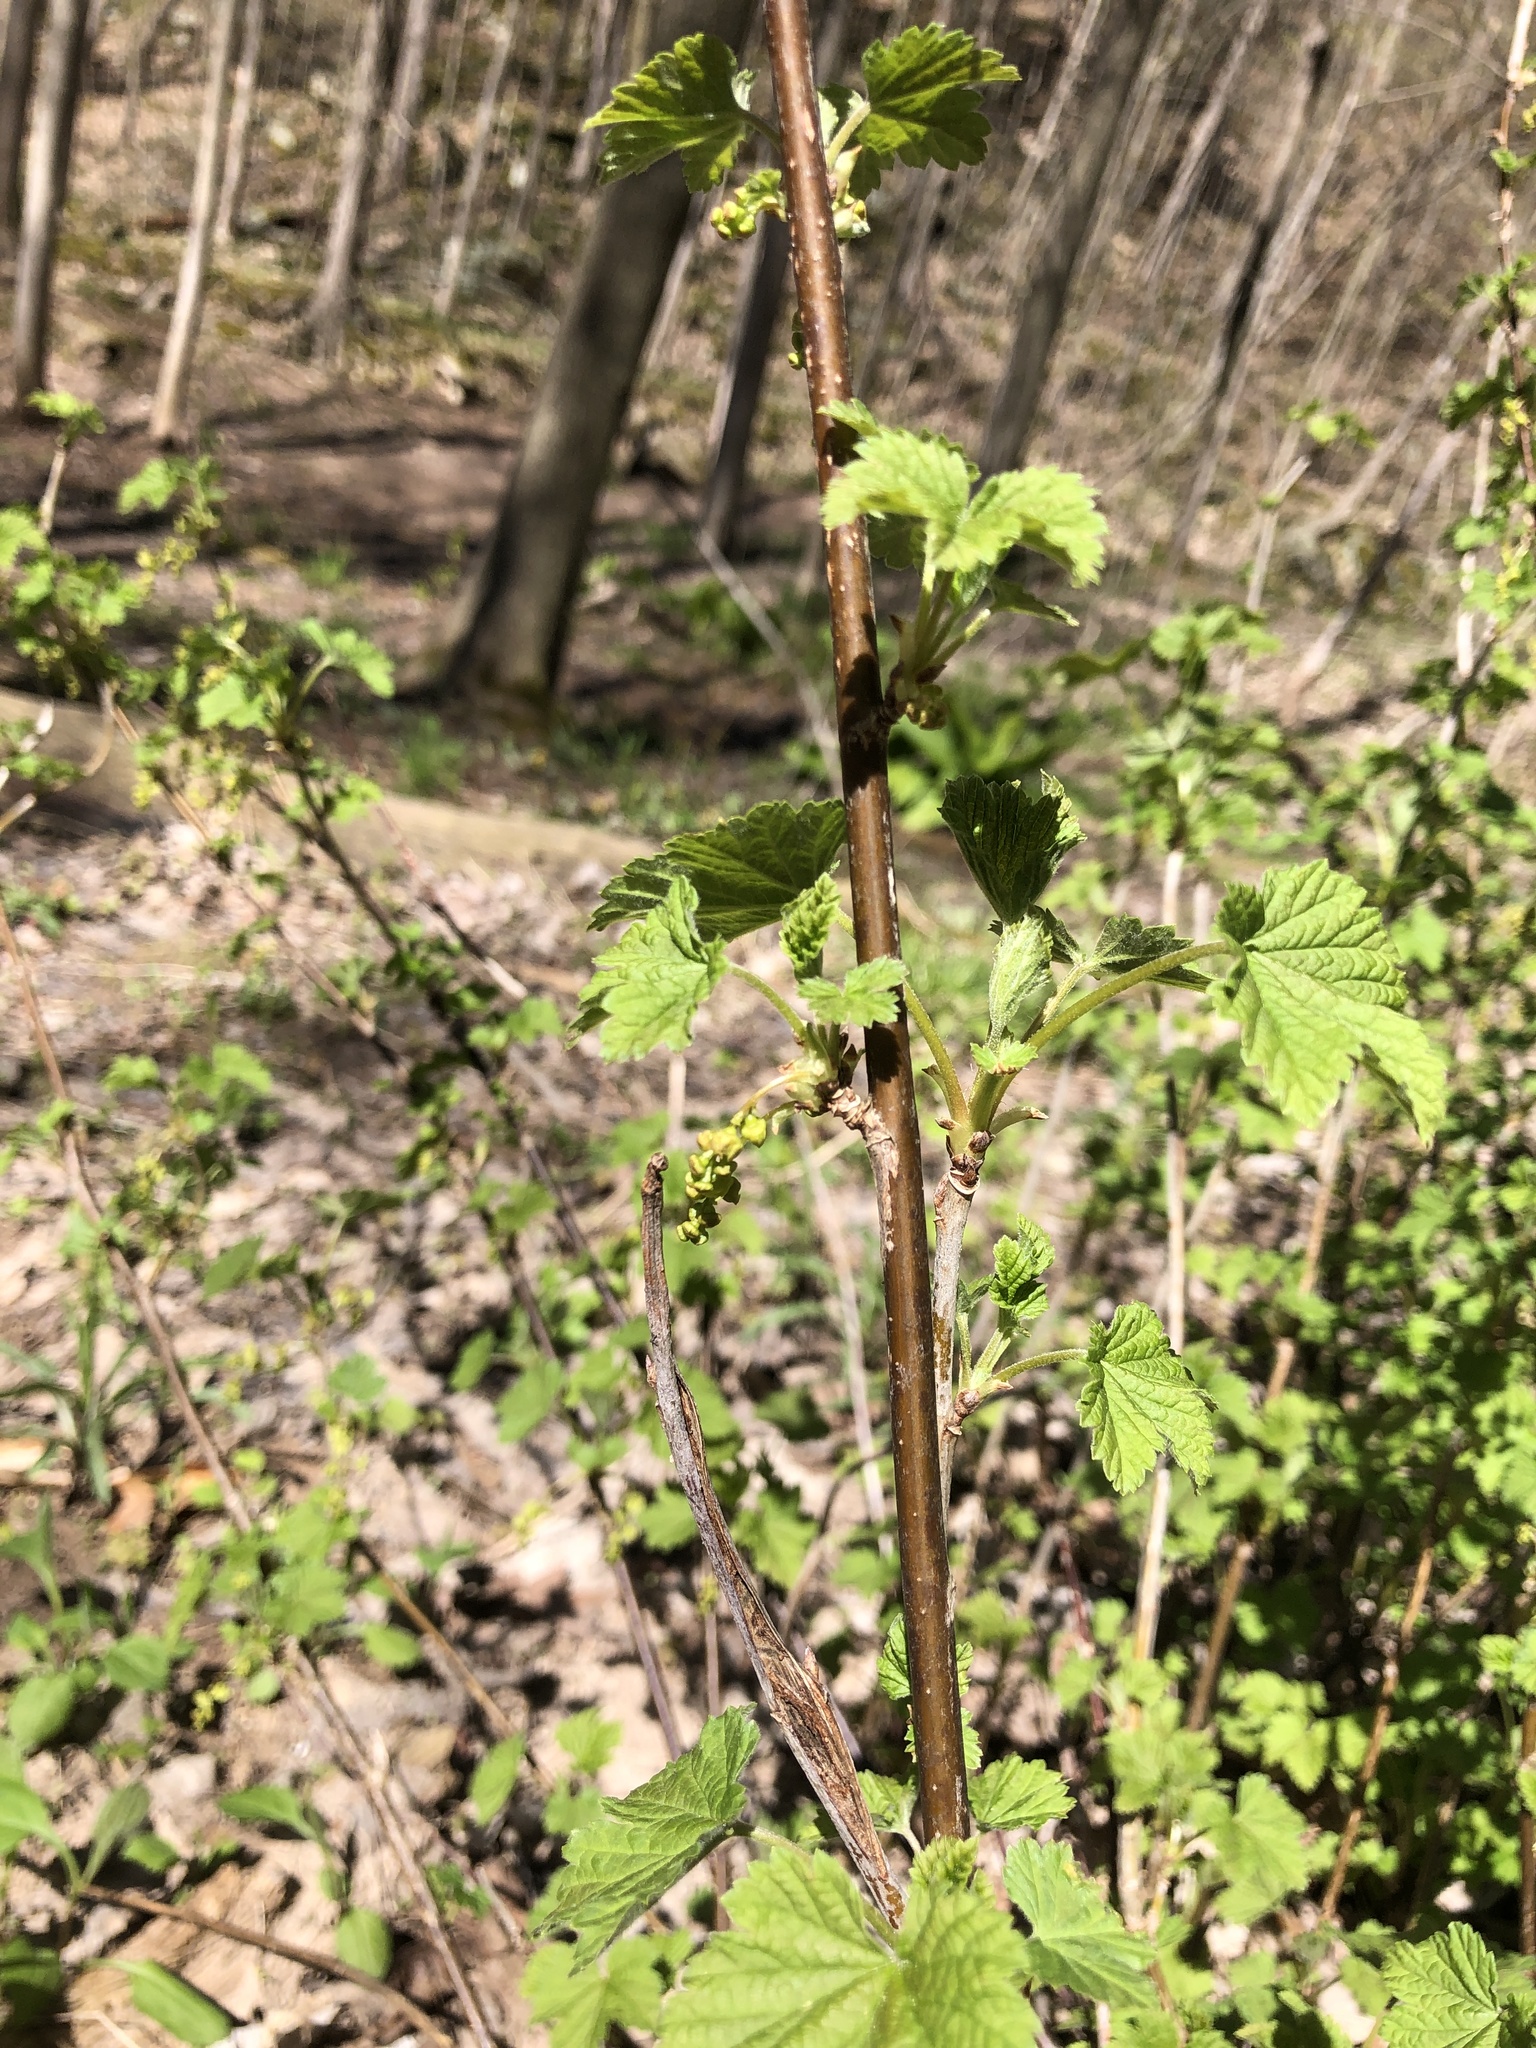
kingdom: Plantae
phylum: Tracheophyta
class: Magnoliopsida
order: Saxifragales
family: Grossulariaceae
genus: Ribes
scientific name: Ribes rubrum
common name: Red currant
